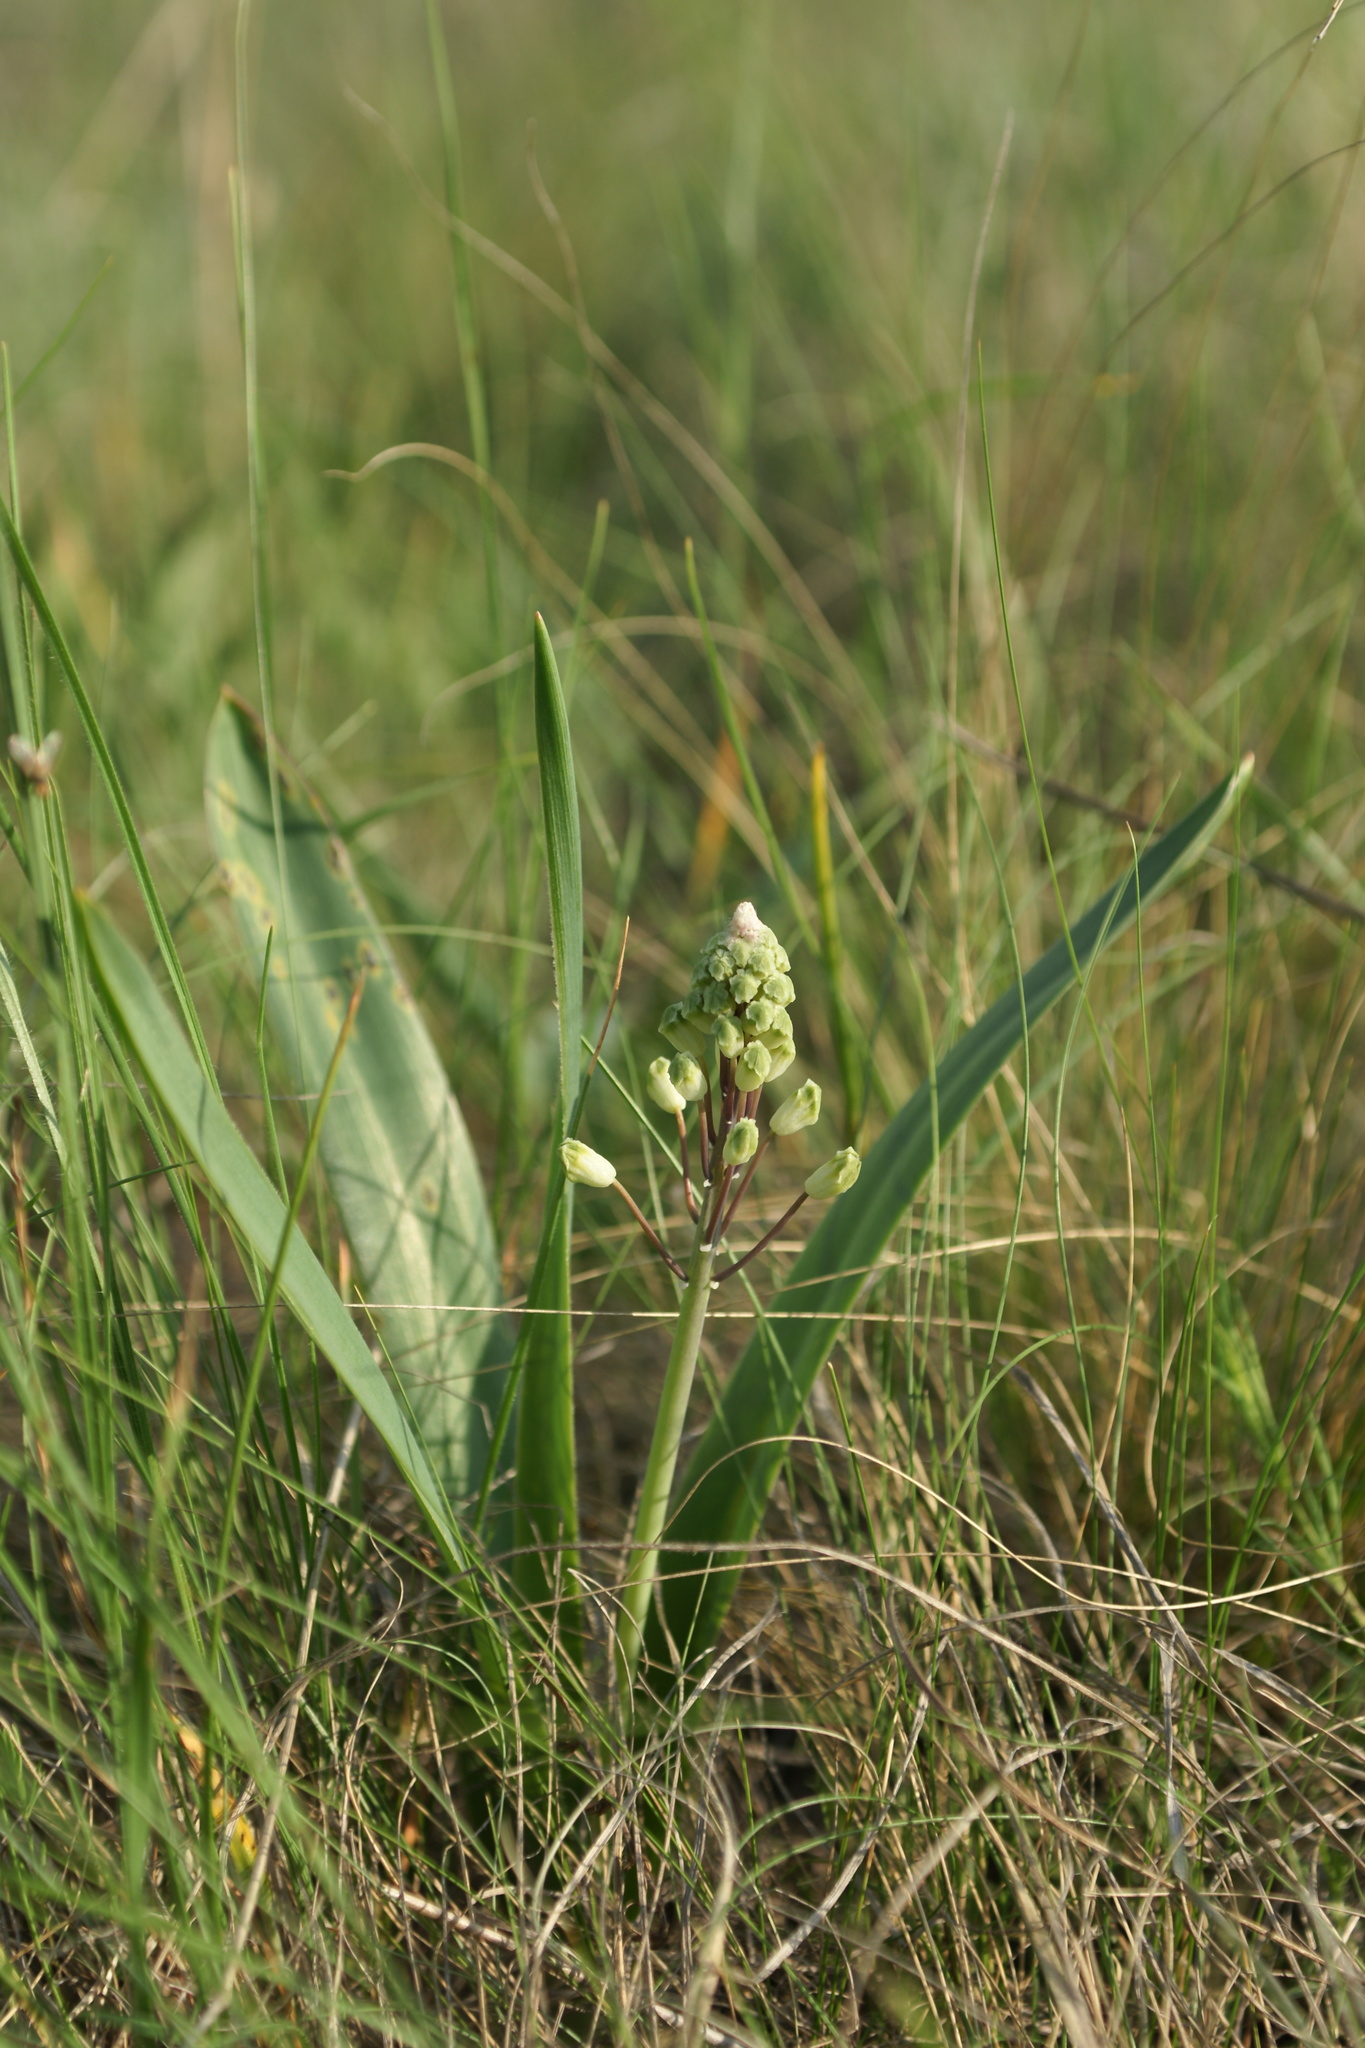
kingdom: Plantae
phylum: Tracheophyta
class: Liliopsida
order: Asparagales
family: Asparagaceae
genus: Bellevalia
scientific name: Bellevalia speciosa
